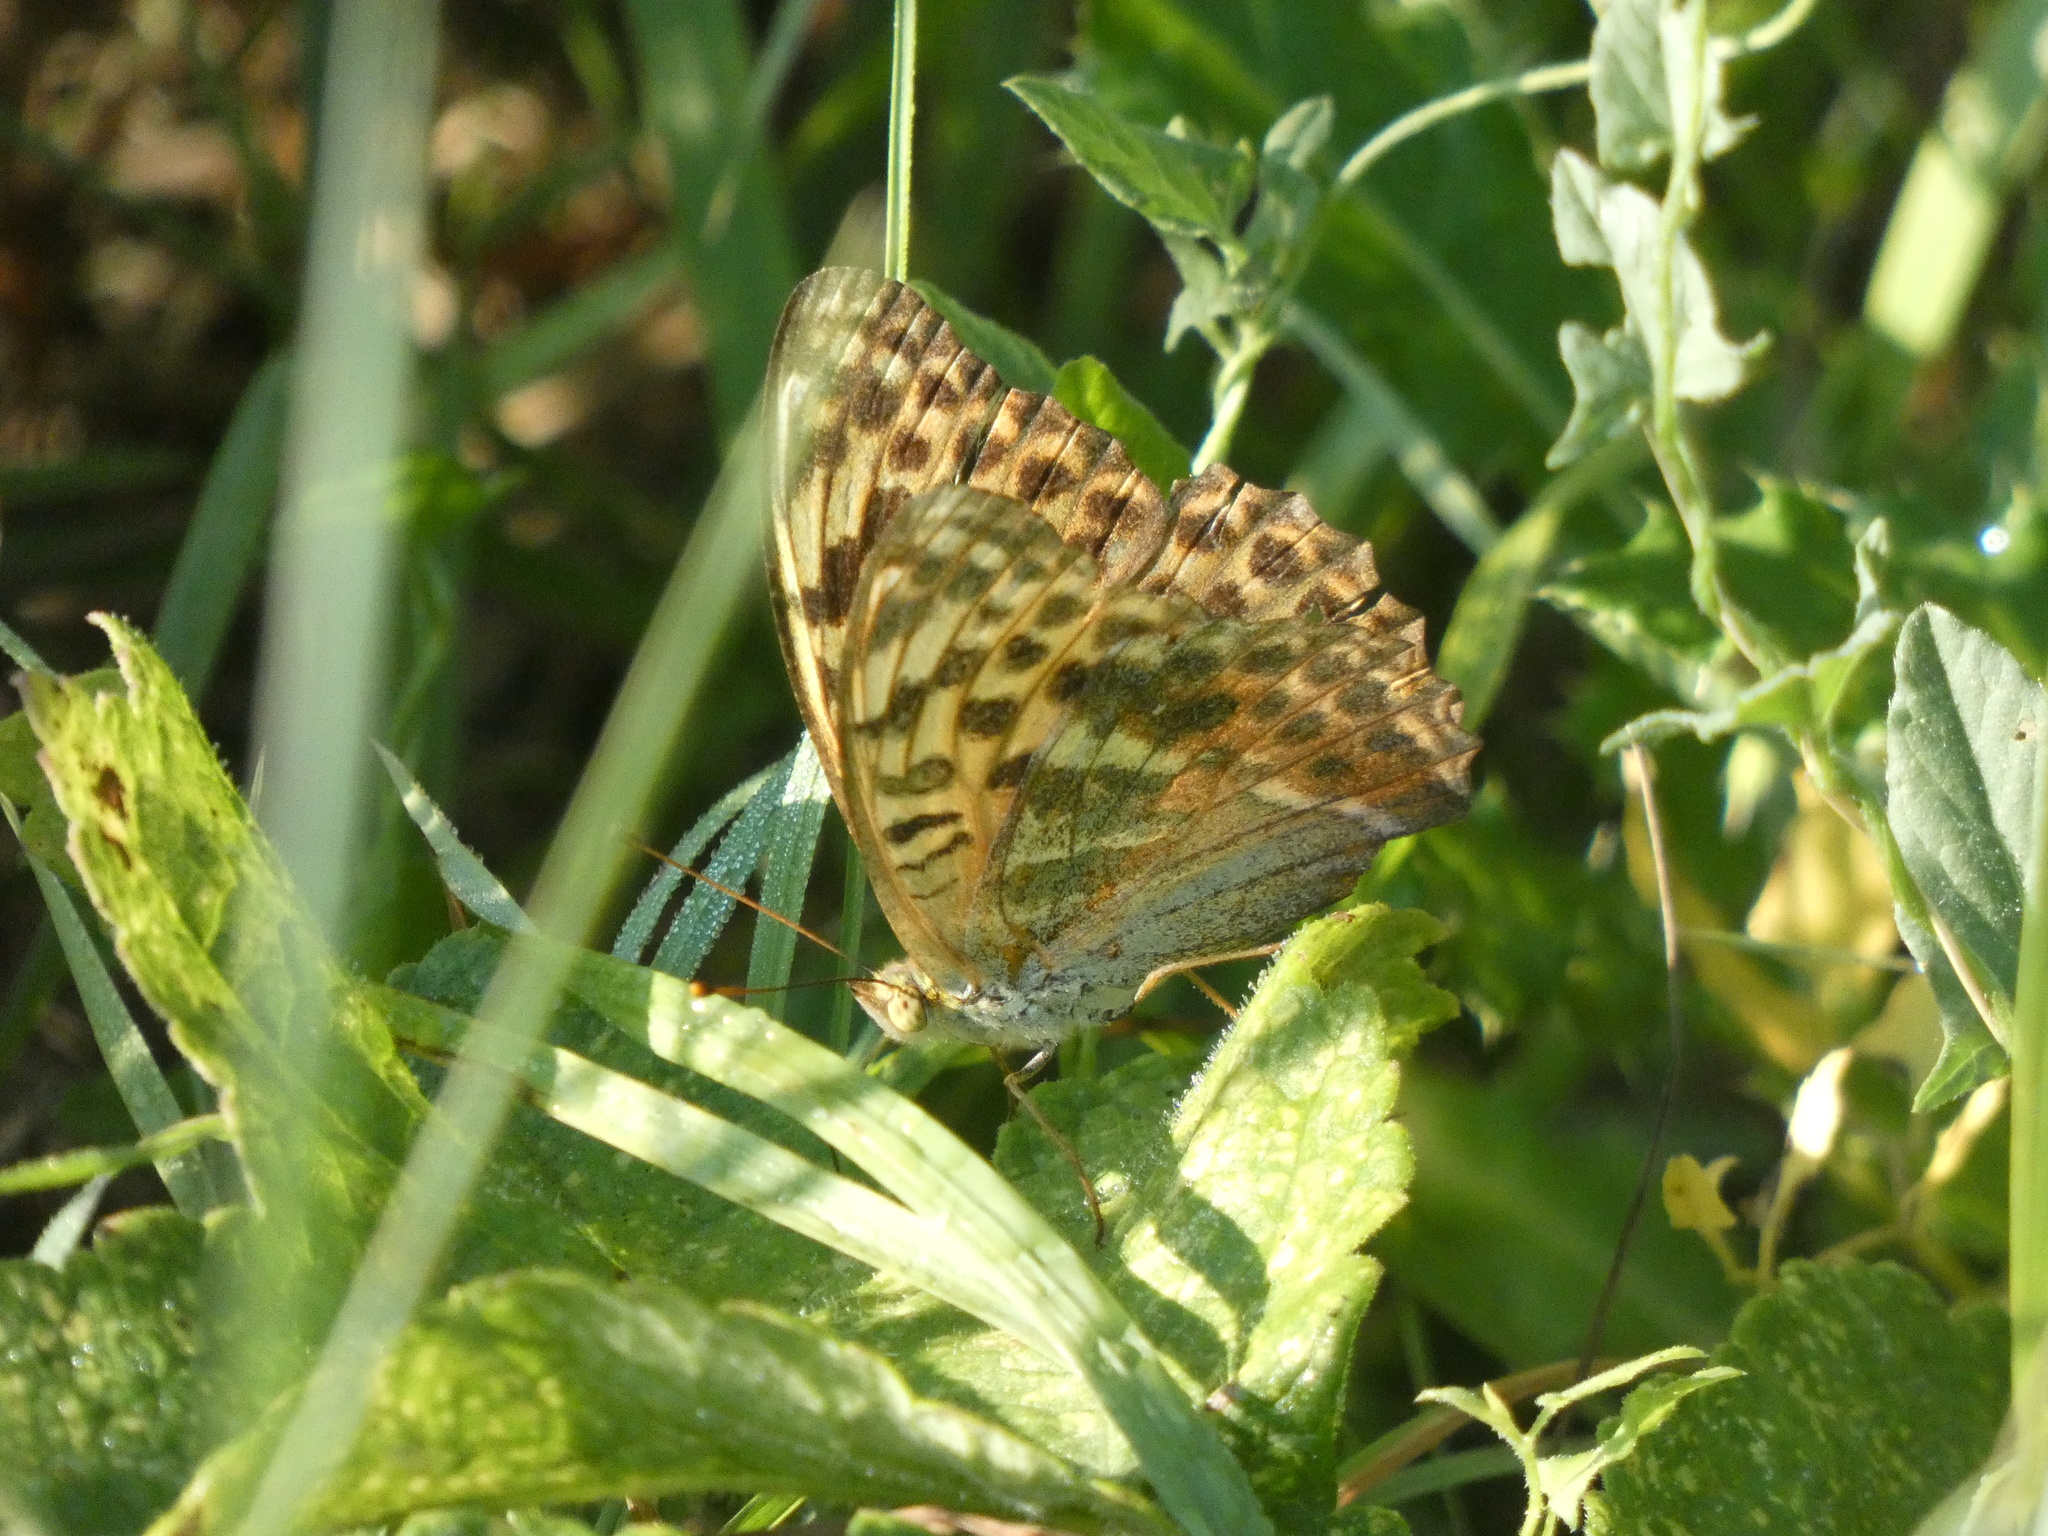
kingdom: Animalia
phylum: Arthropoda
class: Insecta
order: Lepidoptera
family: Nymphalidae
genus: Argynnis
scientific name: Argynnis paphia
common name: Silver-washed fritillary
